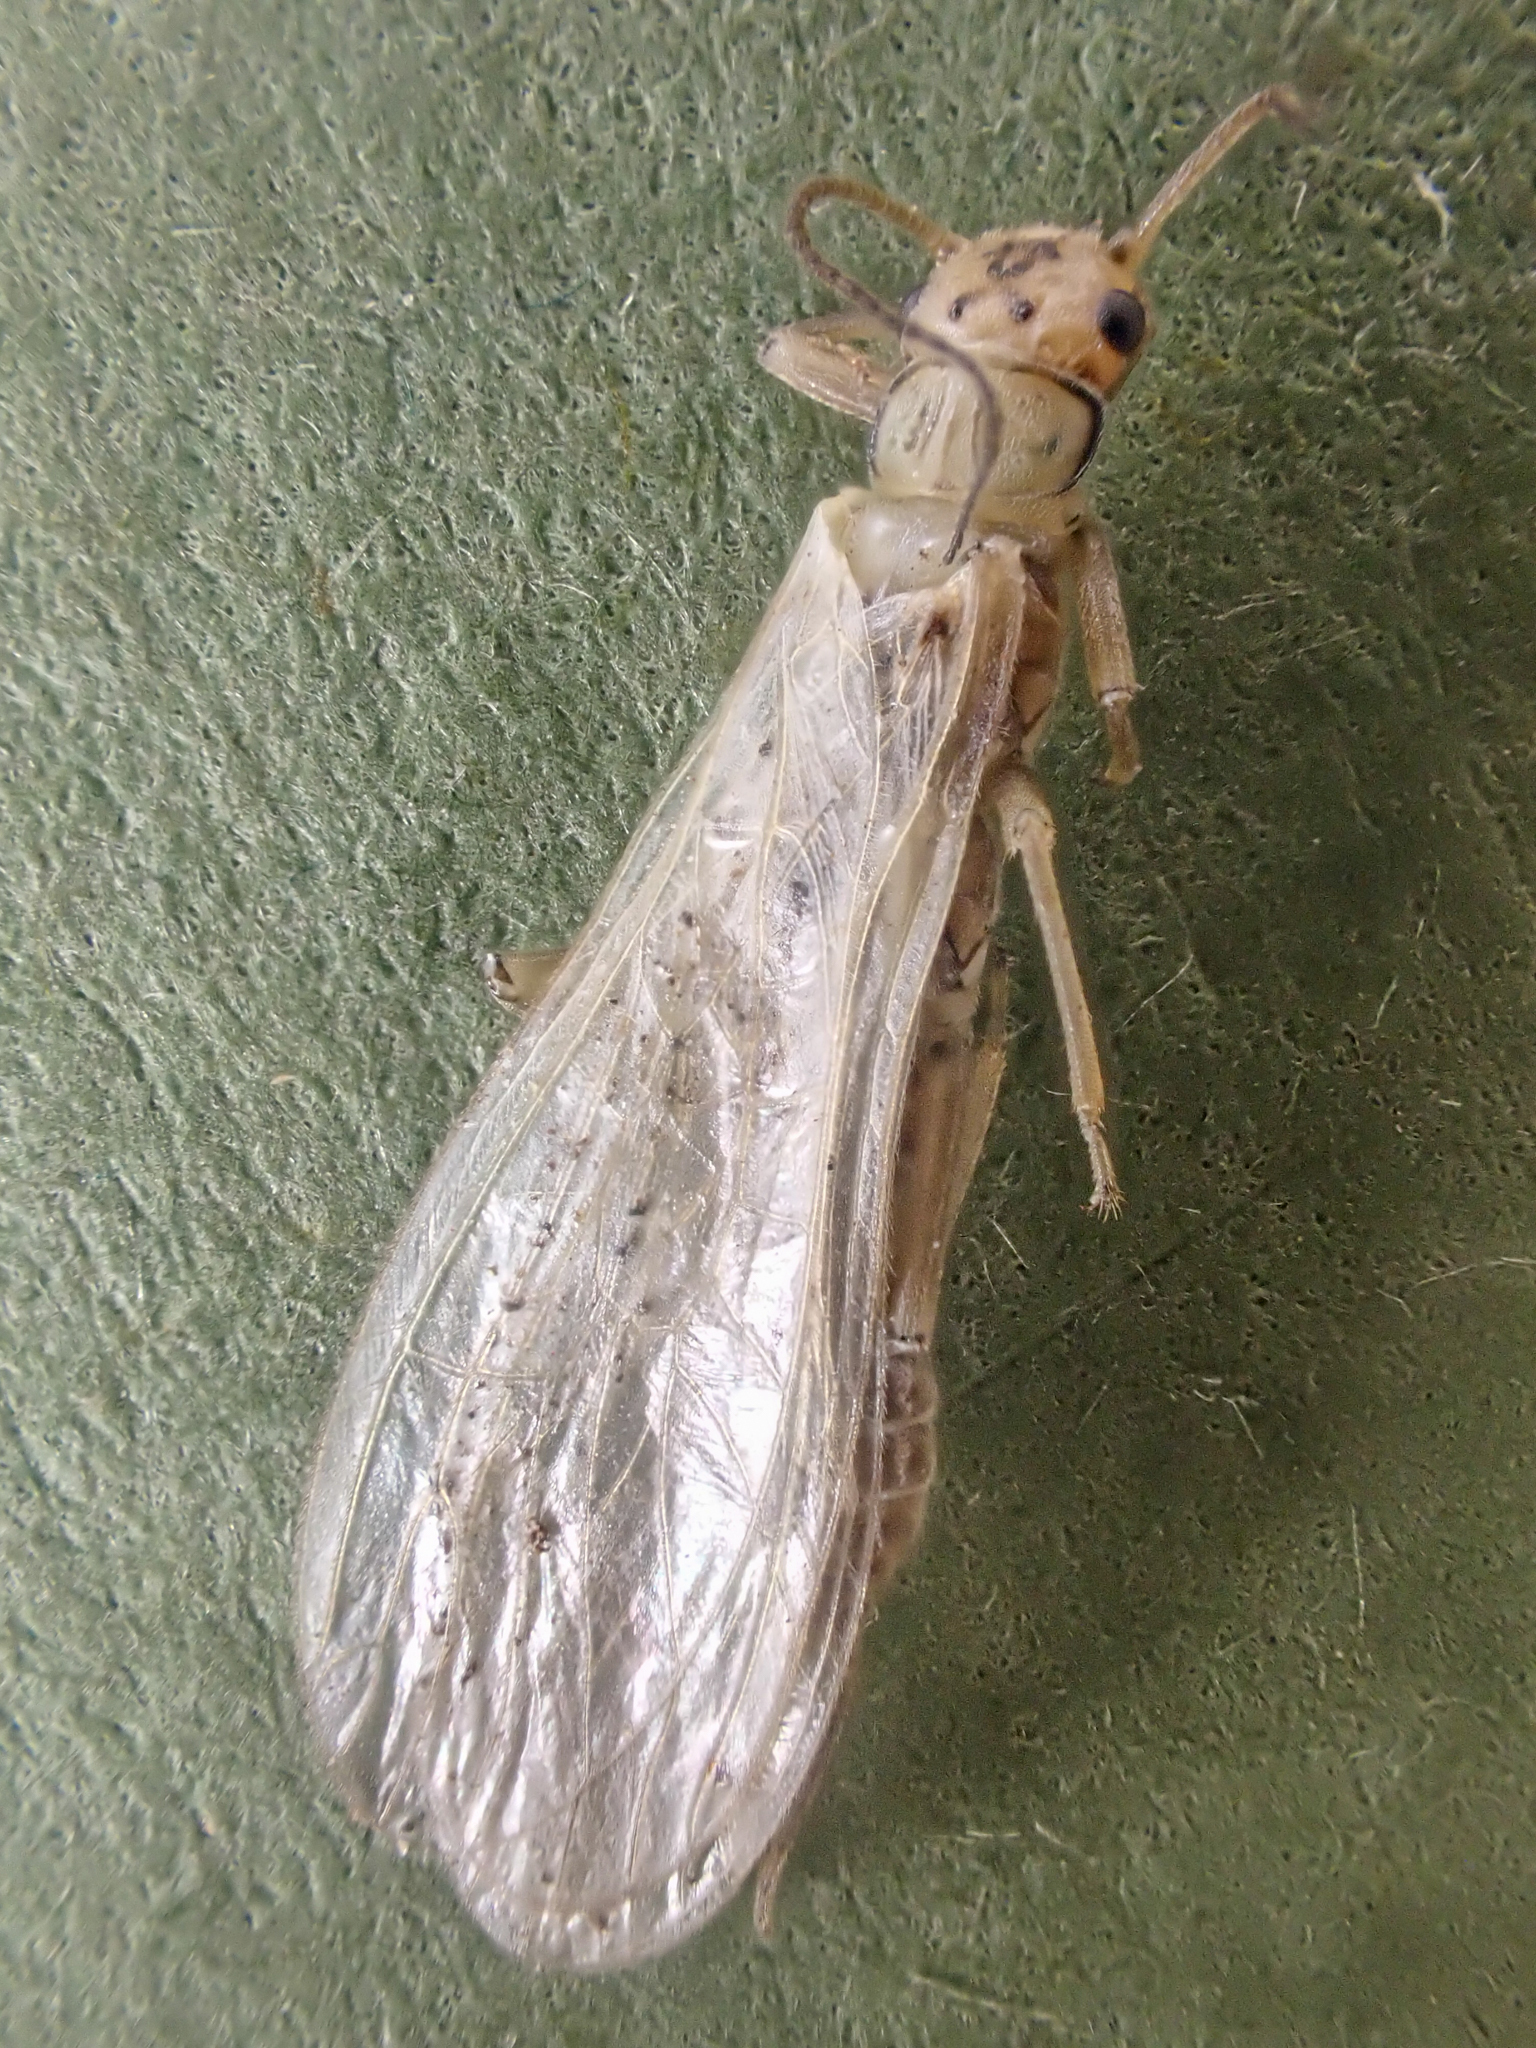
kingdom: Animalia
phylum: Arthropoda
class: Insecta
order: Plecoptera
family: Chloroperlidae
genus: Sweltsa
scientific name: Sweltsa fidelis
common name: Mountain sallfly
